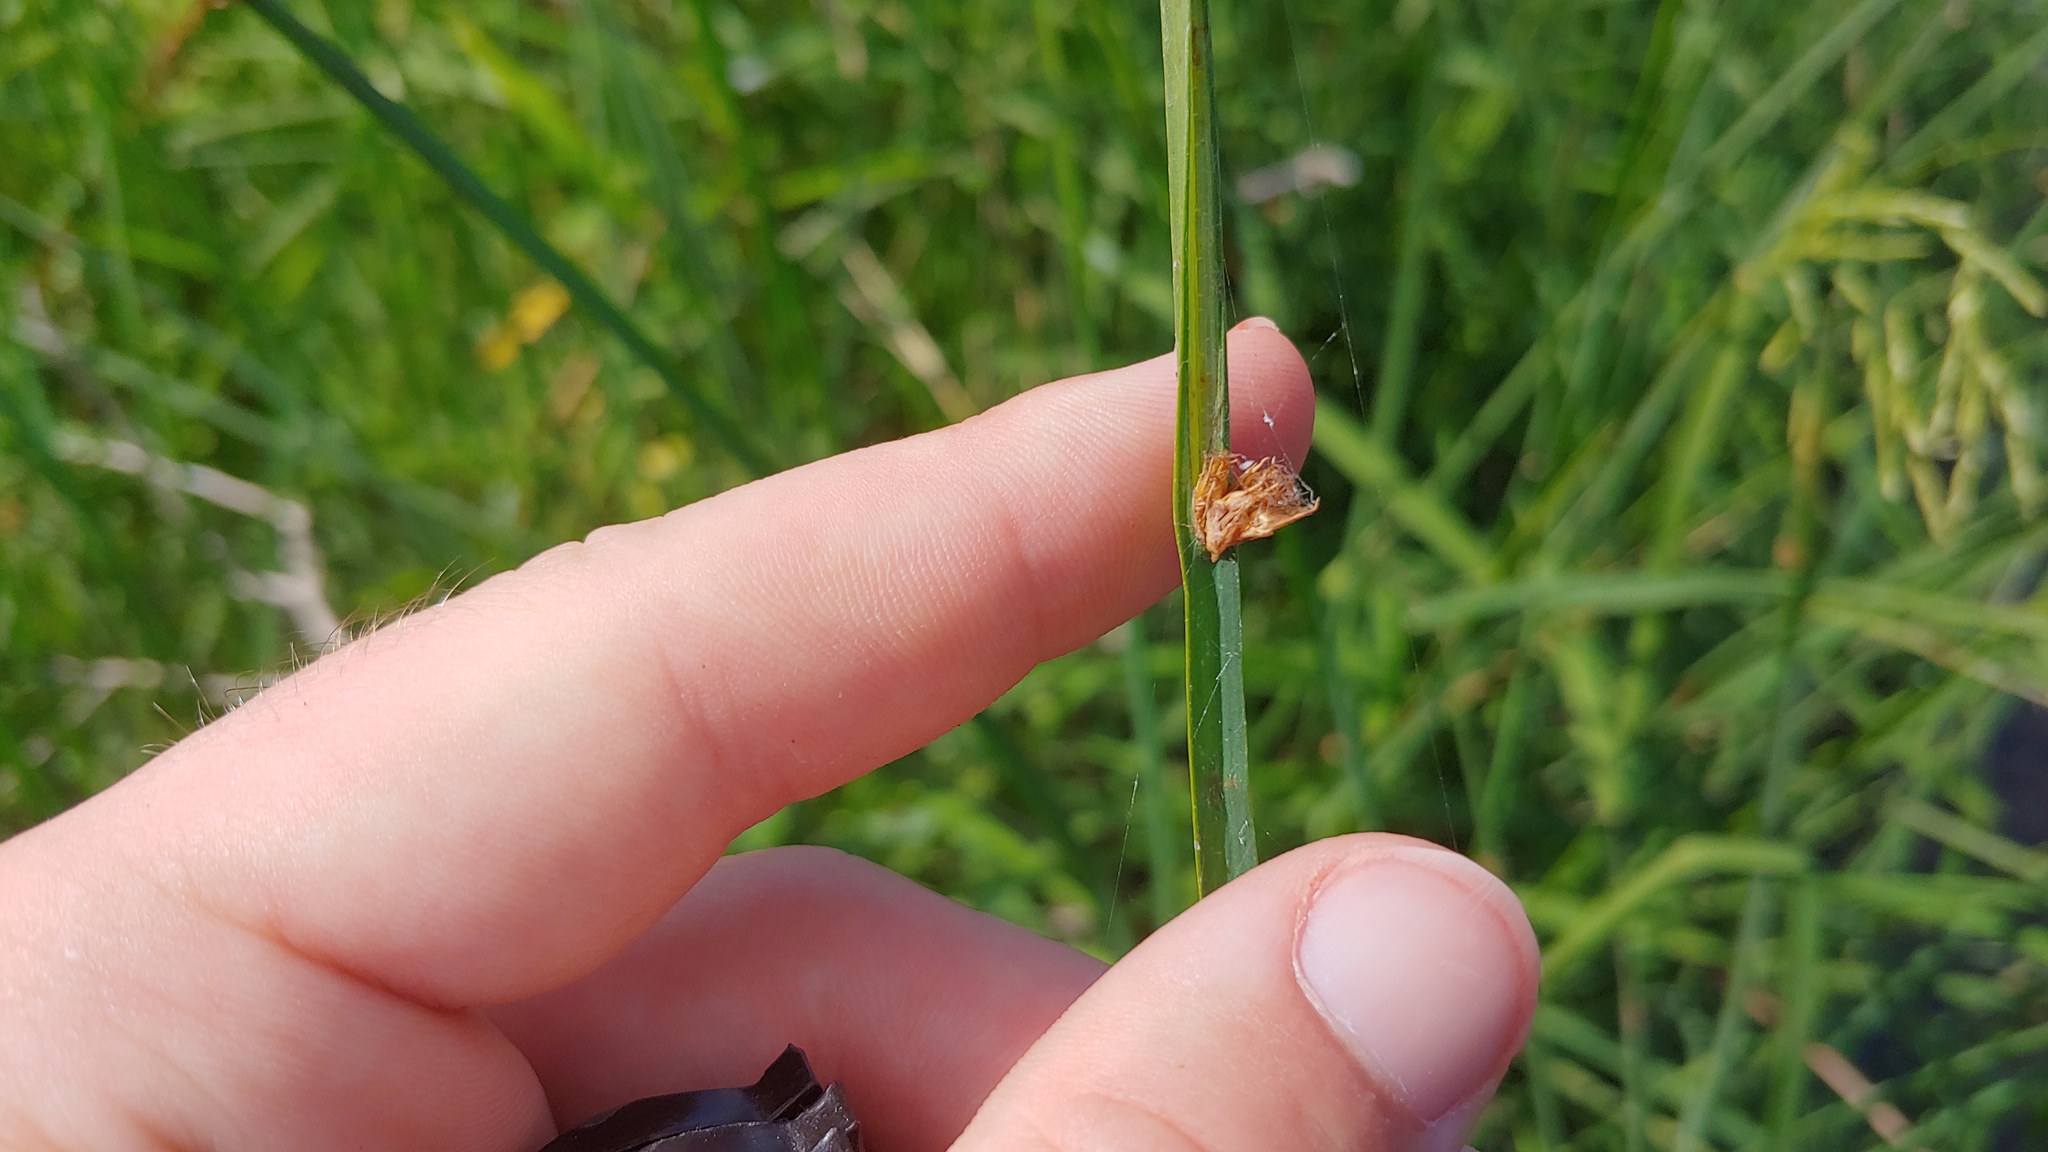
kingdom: Plantae
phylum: Tracheophyta
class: Liliopsida
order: Poales
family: Cyperaceae
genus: Schoenoplectus
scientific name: Schoenoplectus pungens
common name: Sharp club-rush
